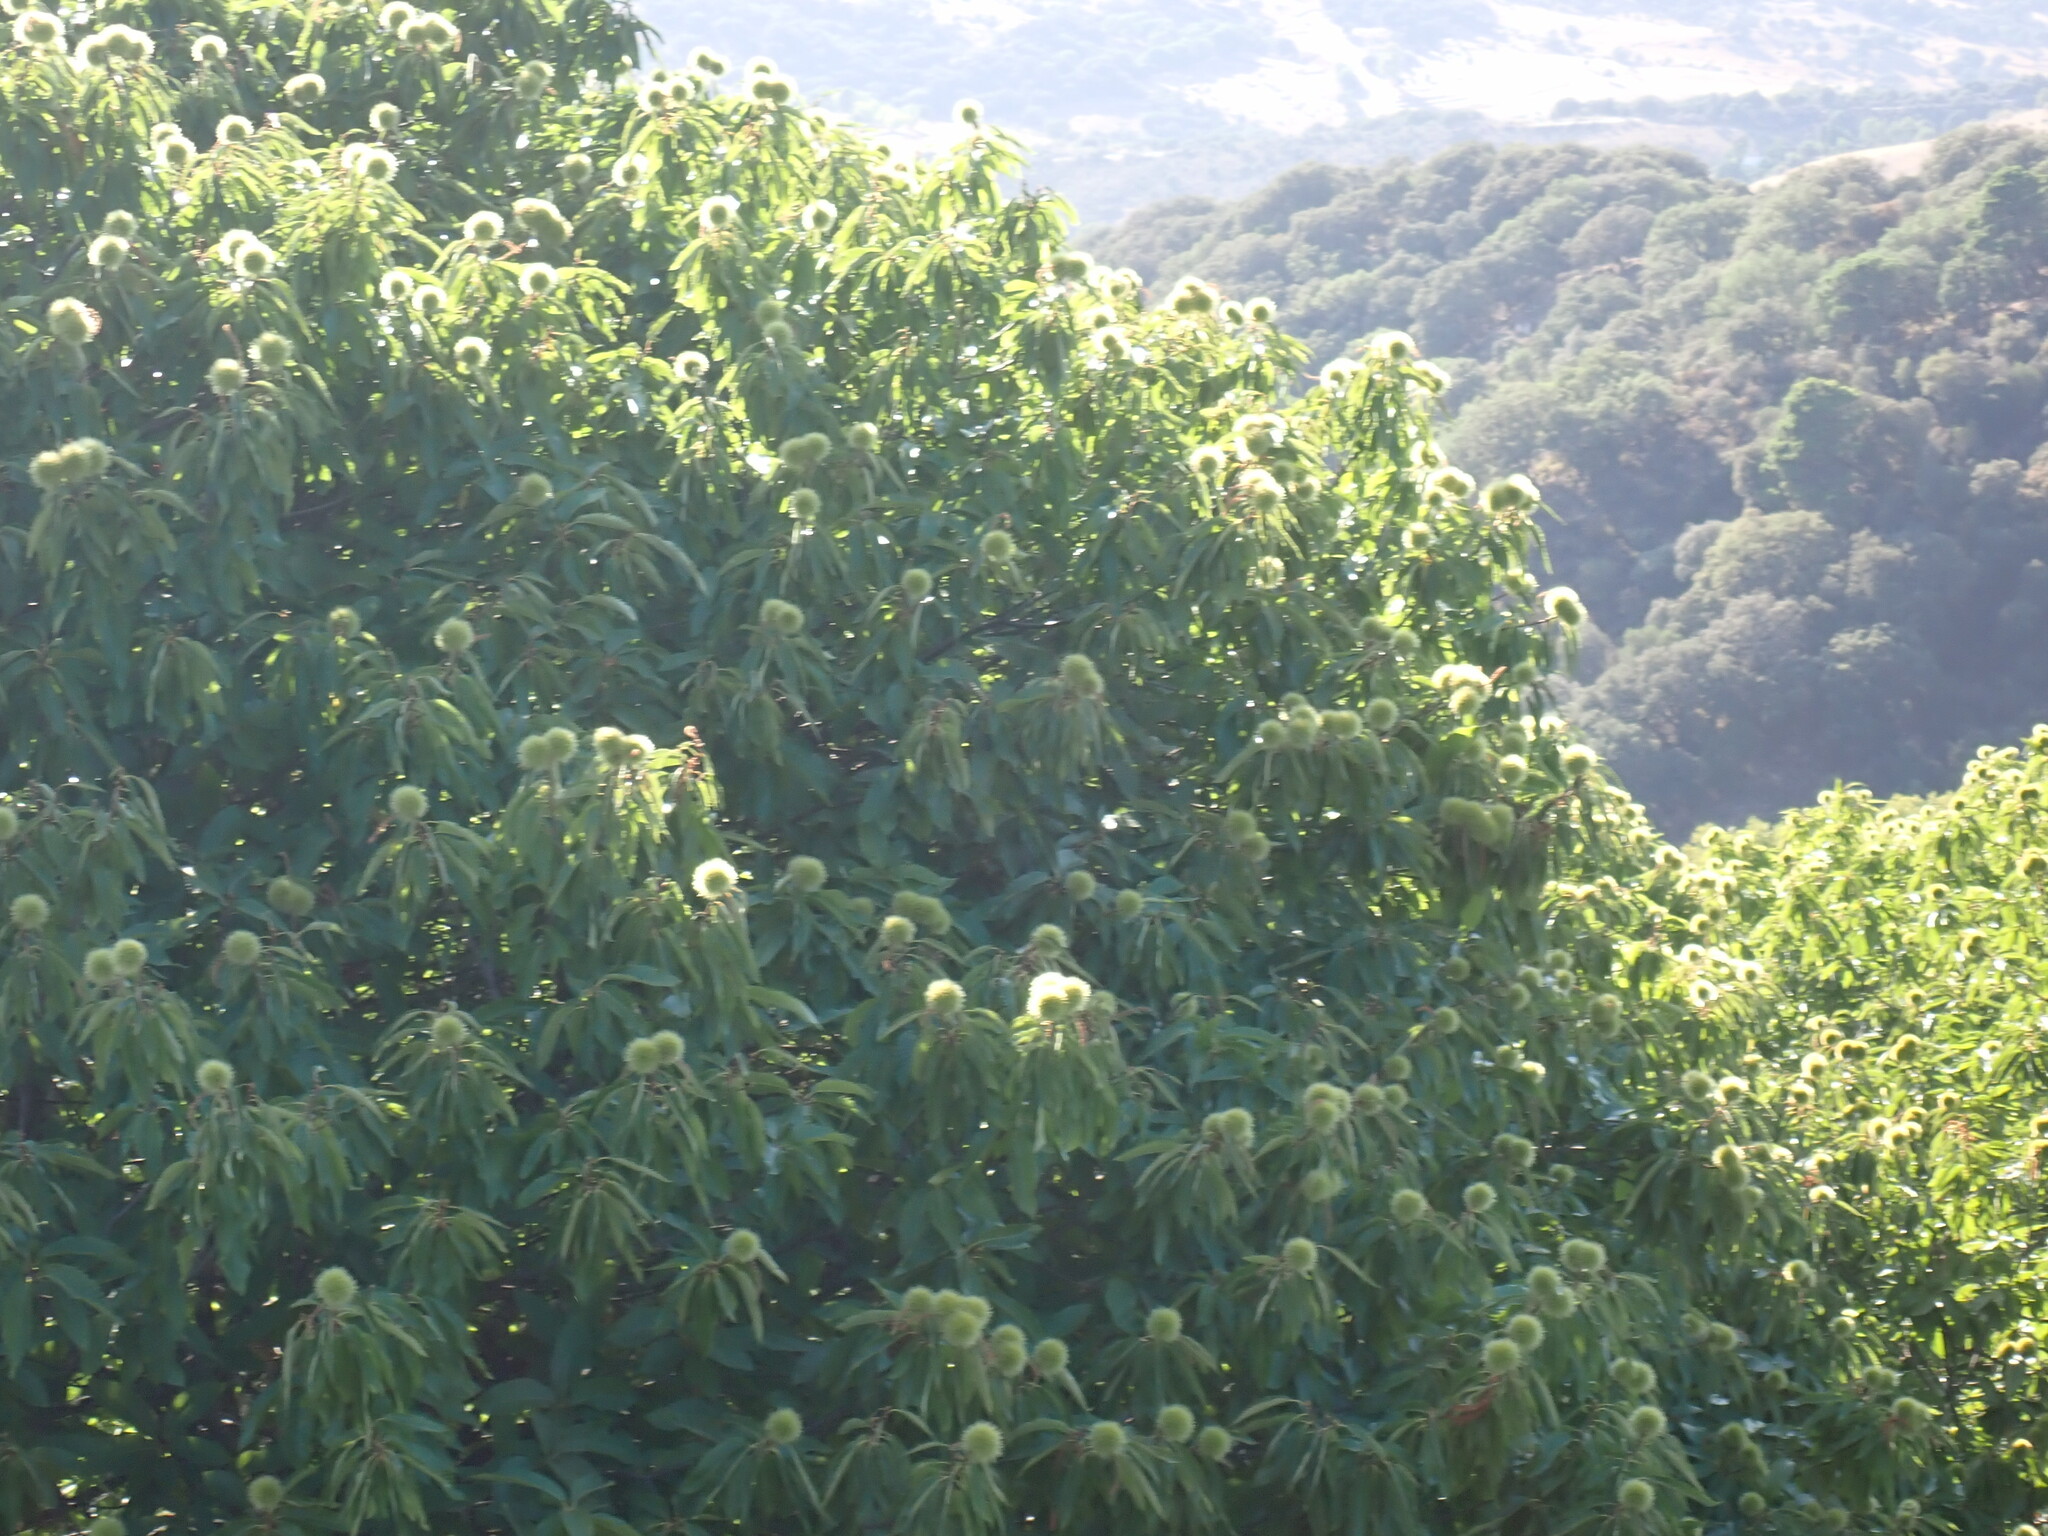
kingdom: Plantae
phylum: Tracheophyta
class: Magnoliopsida
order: Fagales
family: Fagaceae
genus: Castanea
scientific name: Castanea sativa
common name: Sweet chestnut
